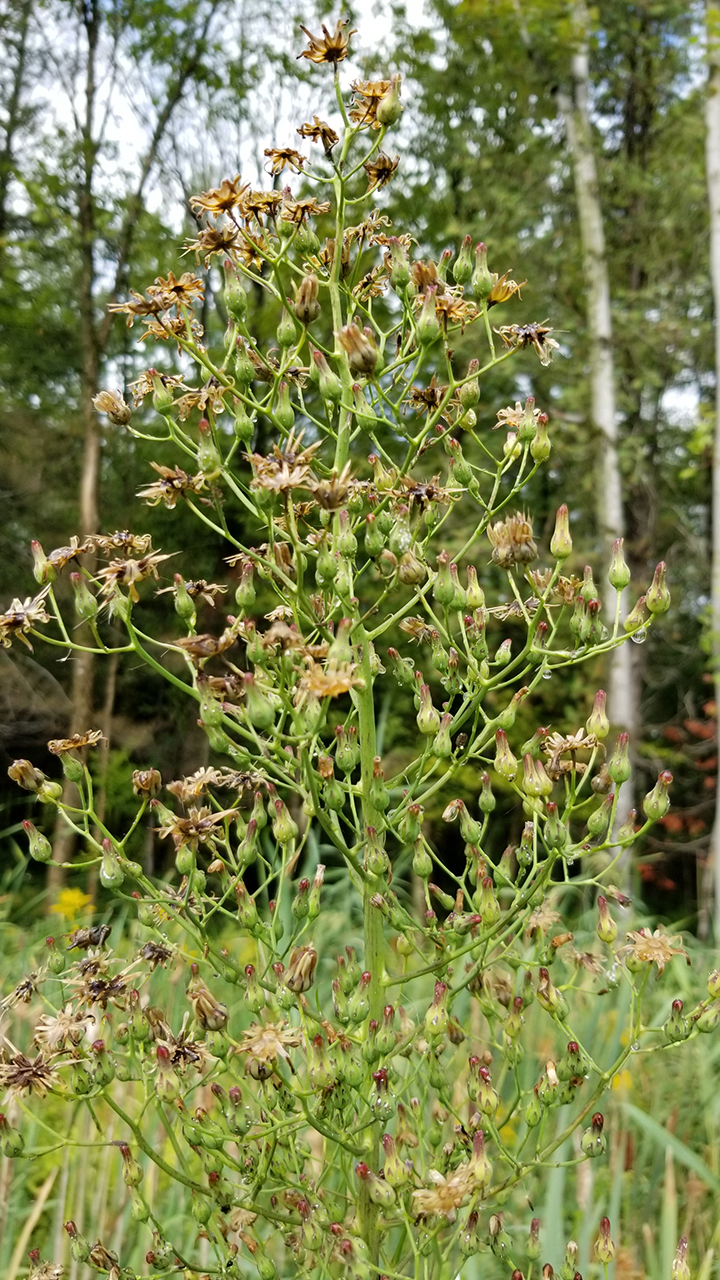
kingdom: Plantae
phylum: Tracheophyta
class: Magnoliopsida
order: Asterales
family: Asteraceae
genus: Lactuca
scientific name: Lactuca biennis
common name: Blue wood lettuce
